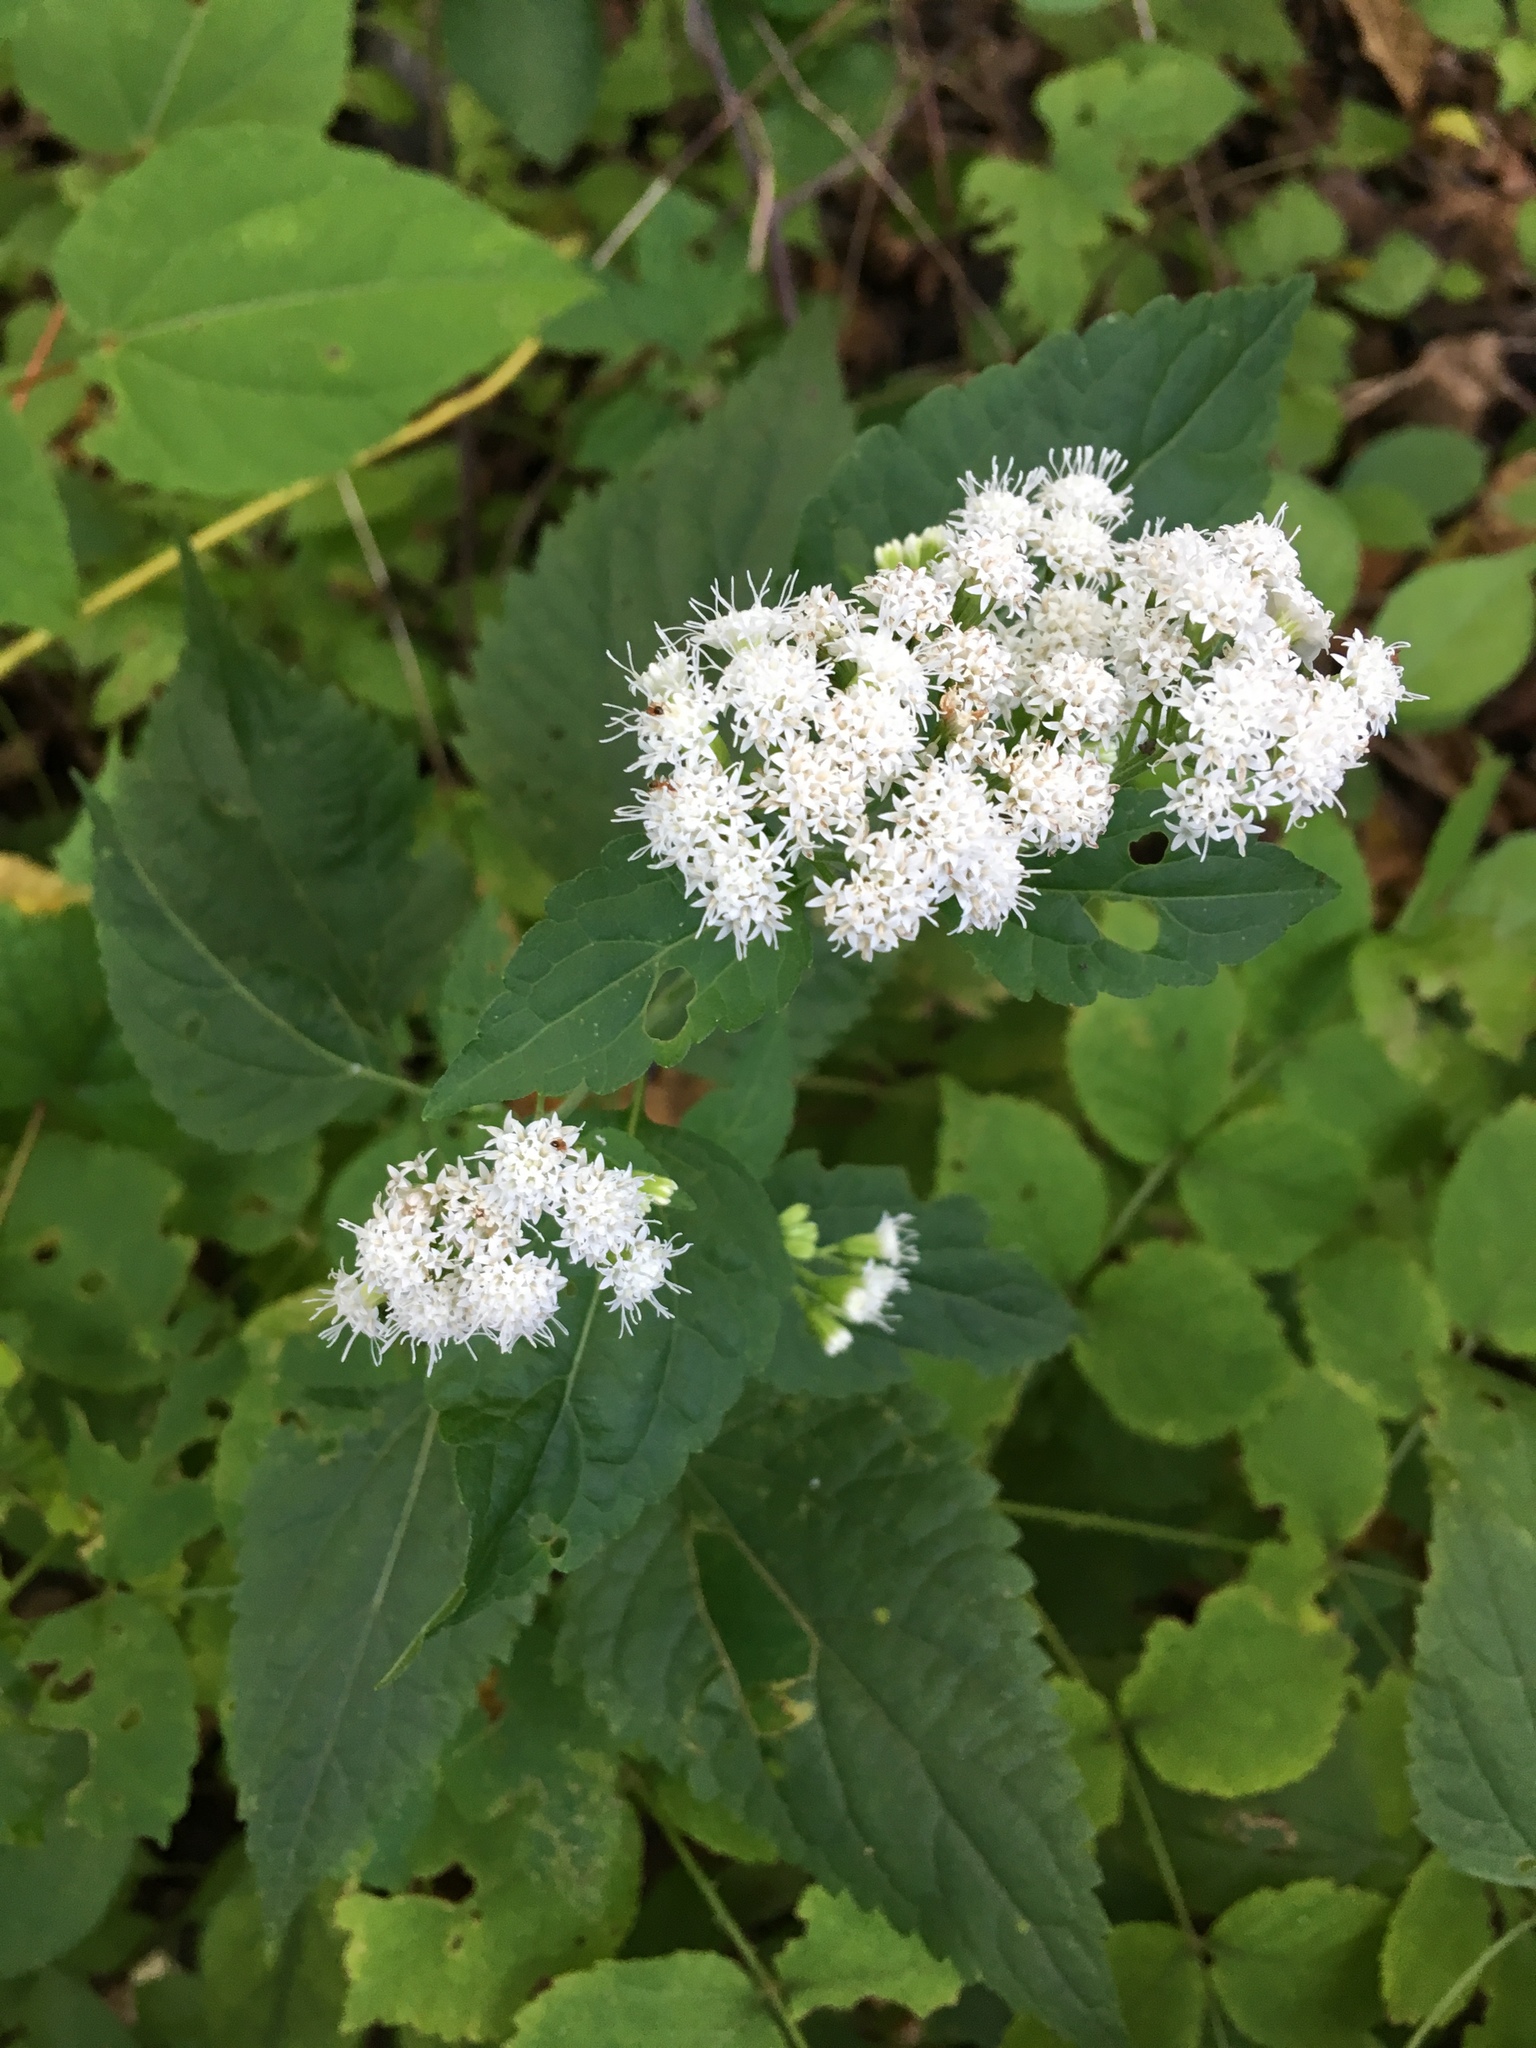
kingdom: Plantae
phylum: Tracheophyta
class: Magnoliopsida
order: Asterales
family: Asteraceae
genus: Ageratina
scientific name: Ageratina altissima
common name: White snakeroot
